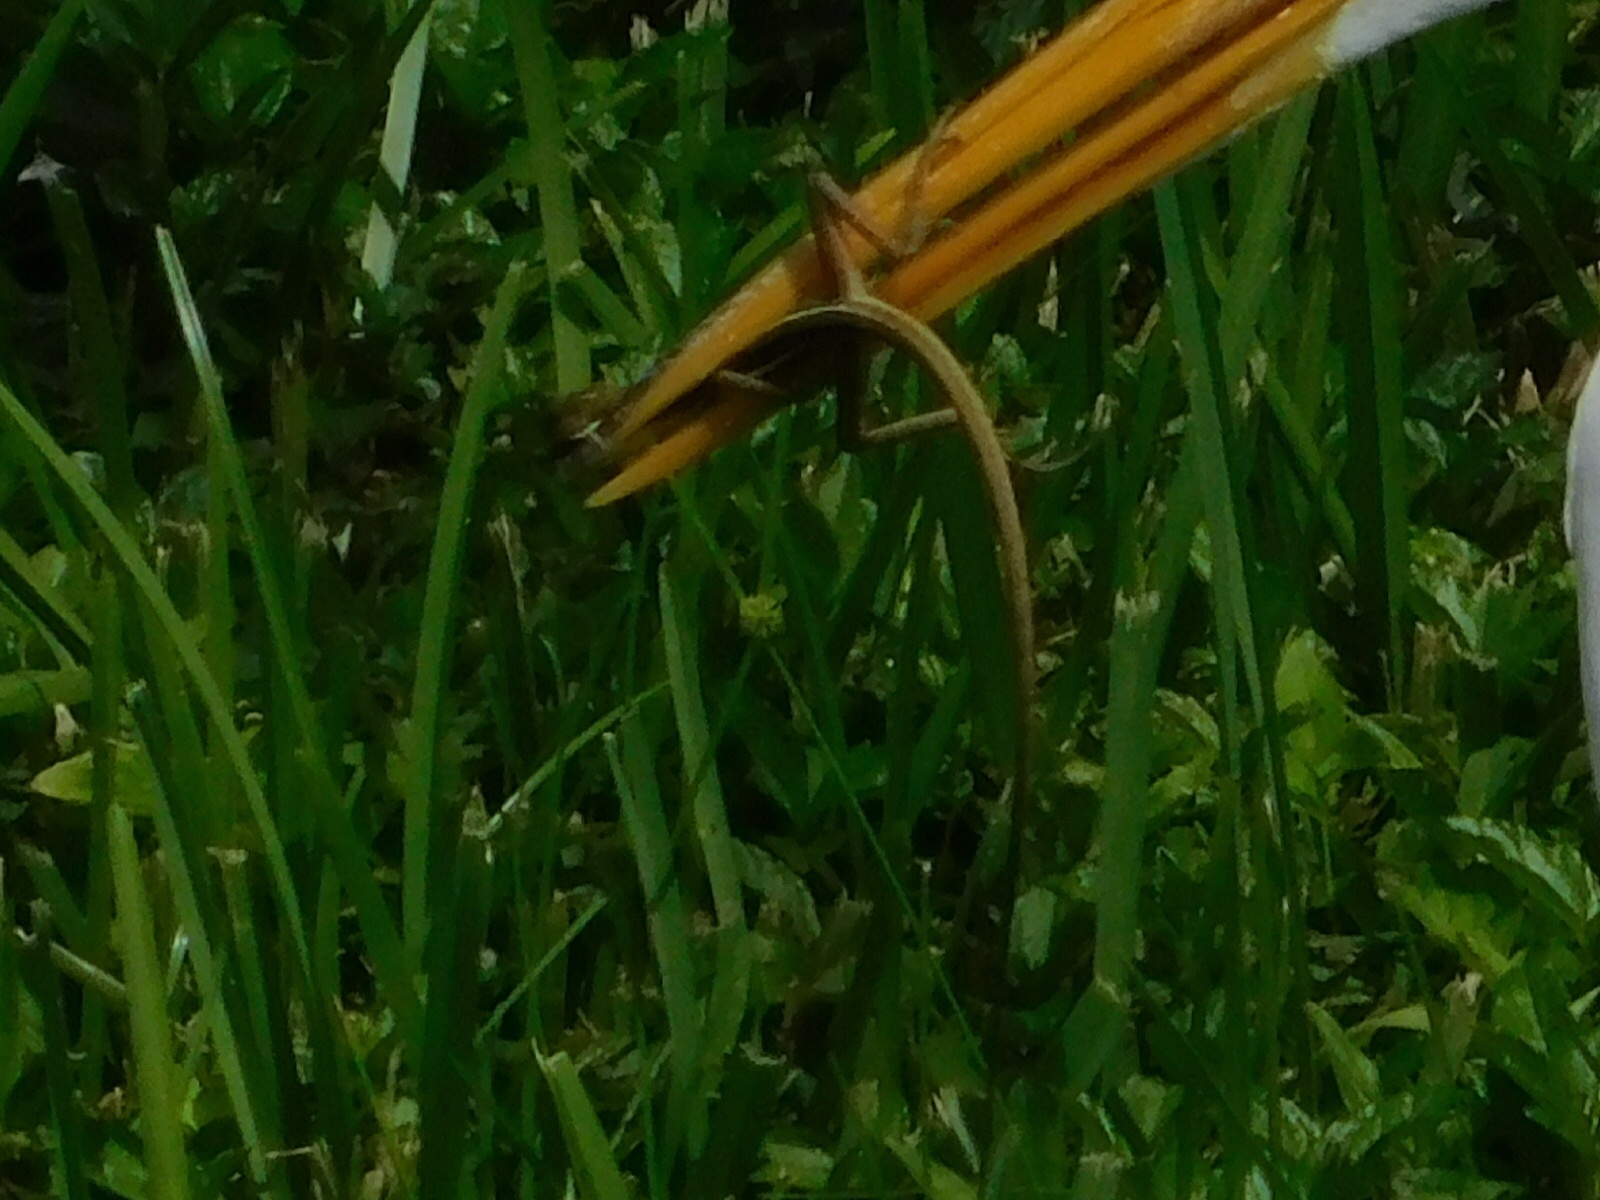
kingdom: Animalia
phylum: Chordata
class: Squamata
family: Corytophanidae
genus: Basiliscus
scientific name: Basiliscus vittatus
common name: Brown basilisk
